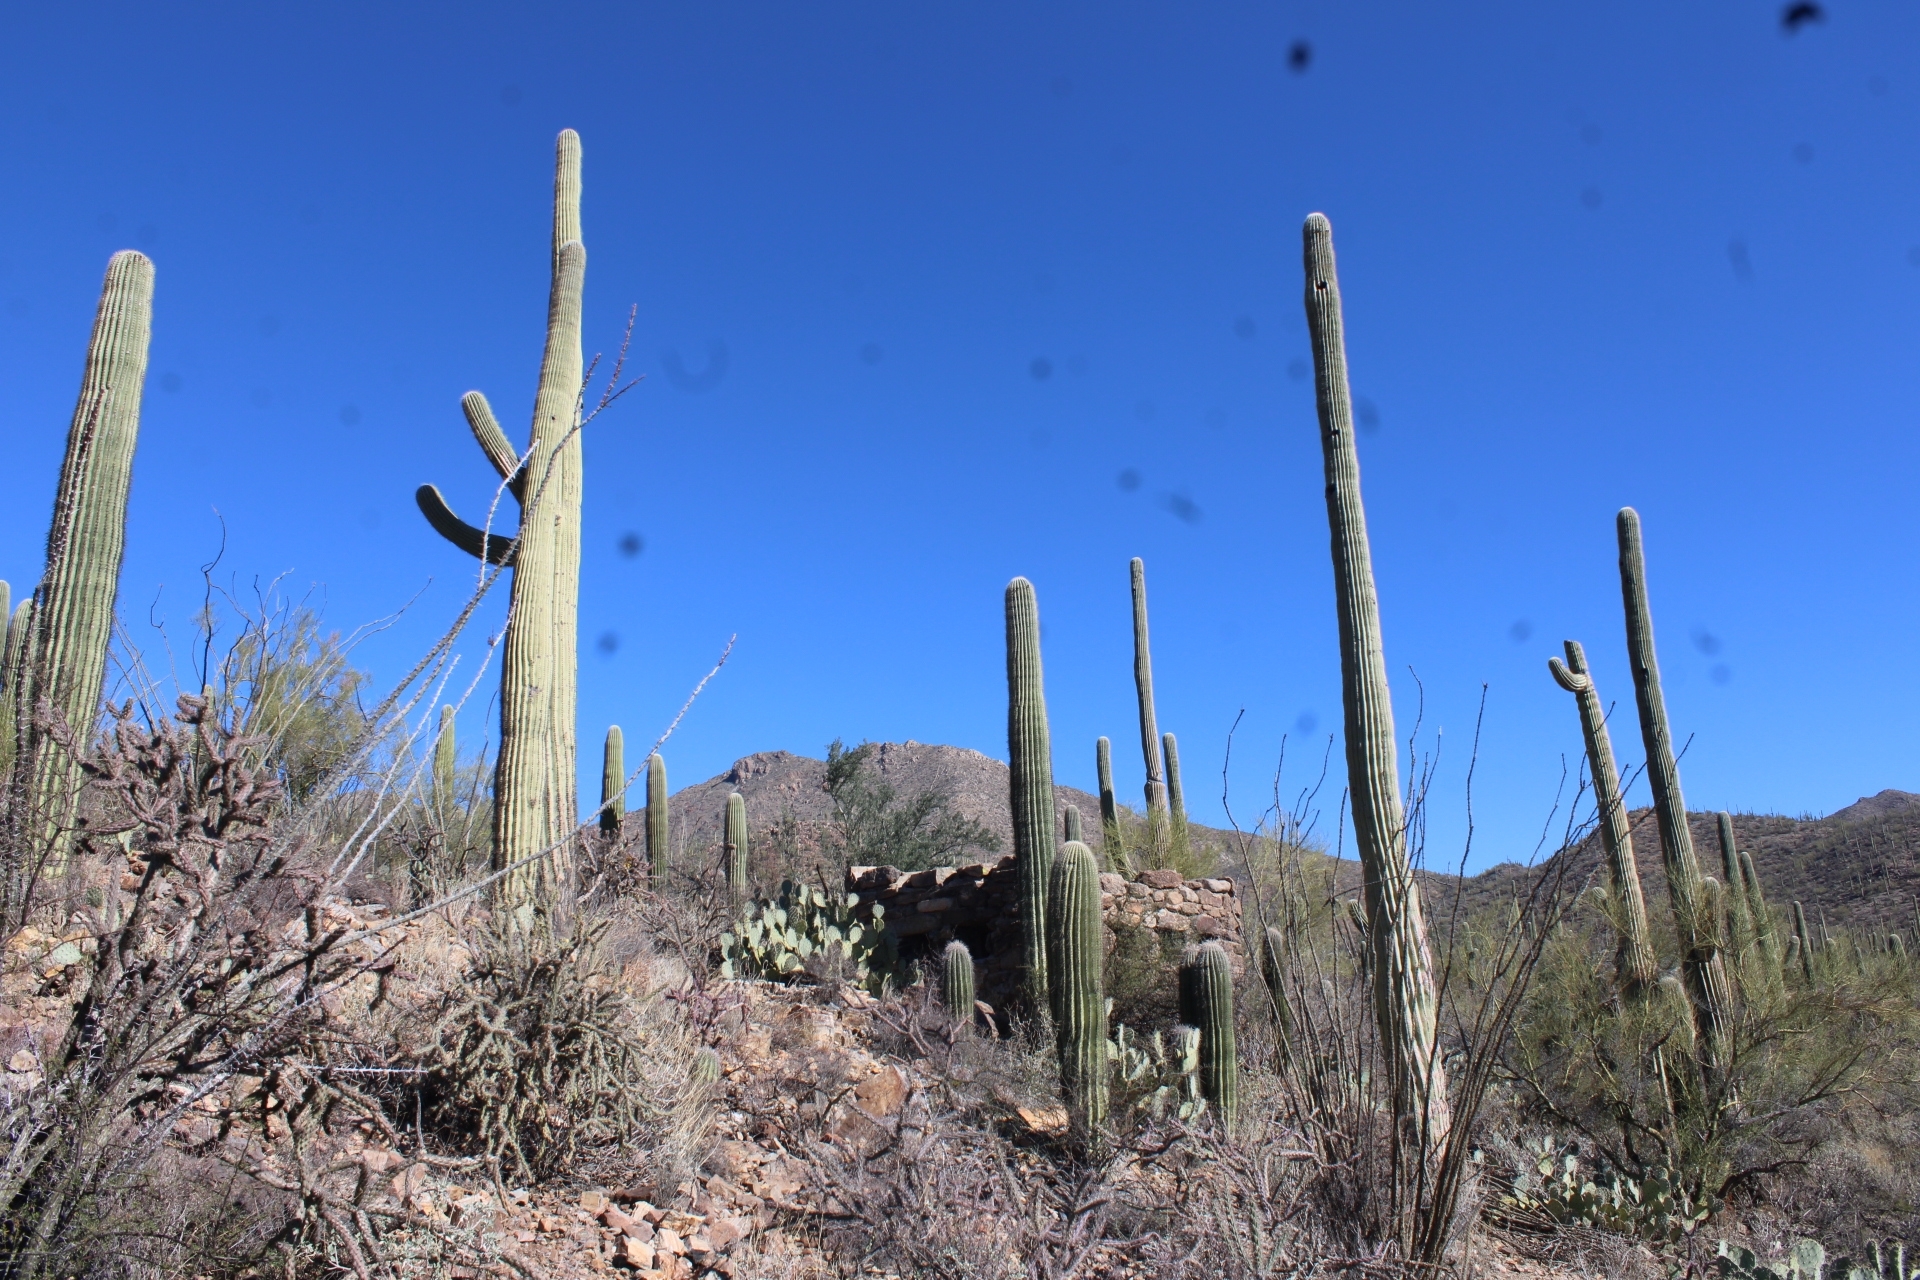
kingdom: Plantae
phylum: Tracheophyta
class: Magnoliopsida
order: Caryophyllales
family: Cactaceae
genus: Carnegiea
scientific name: Carnegiea gigantea
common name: Saguaro
